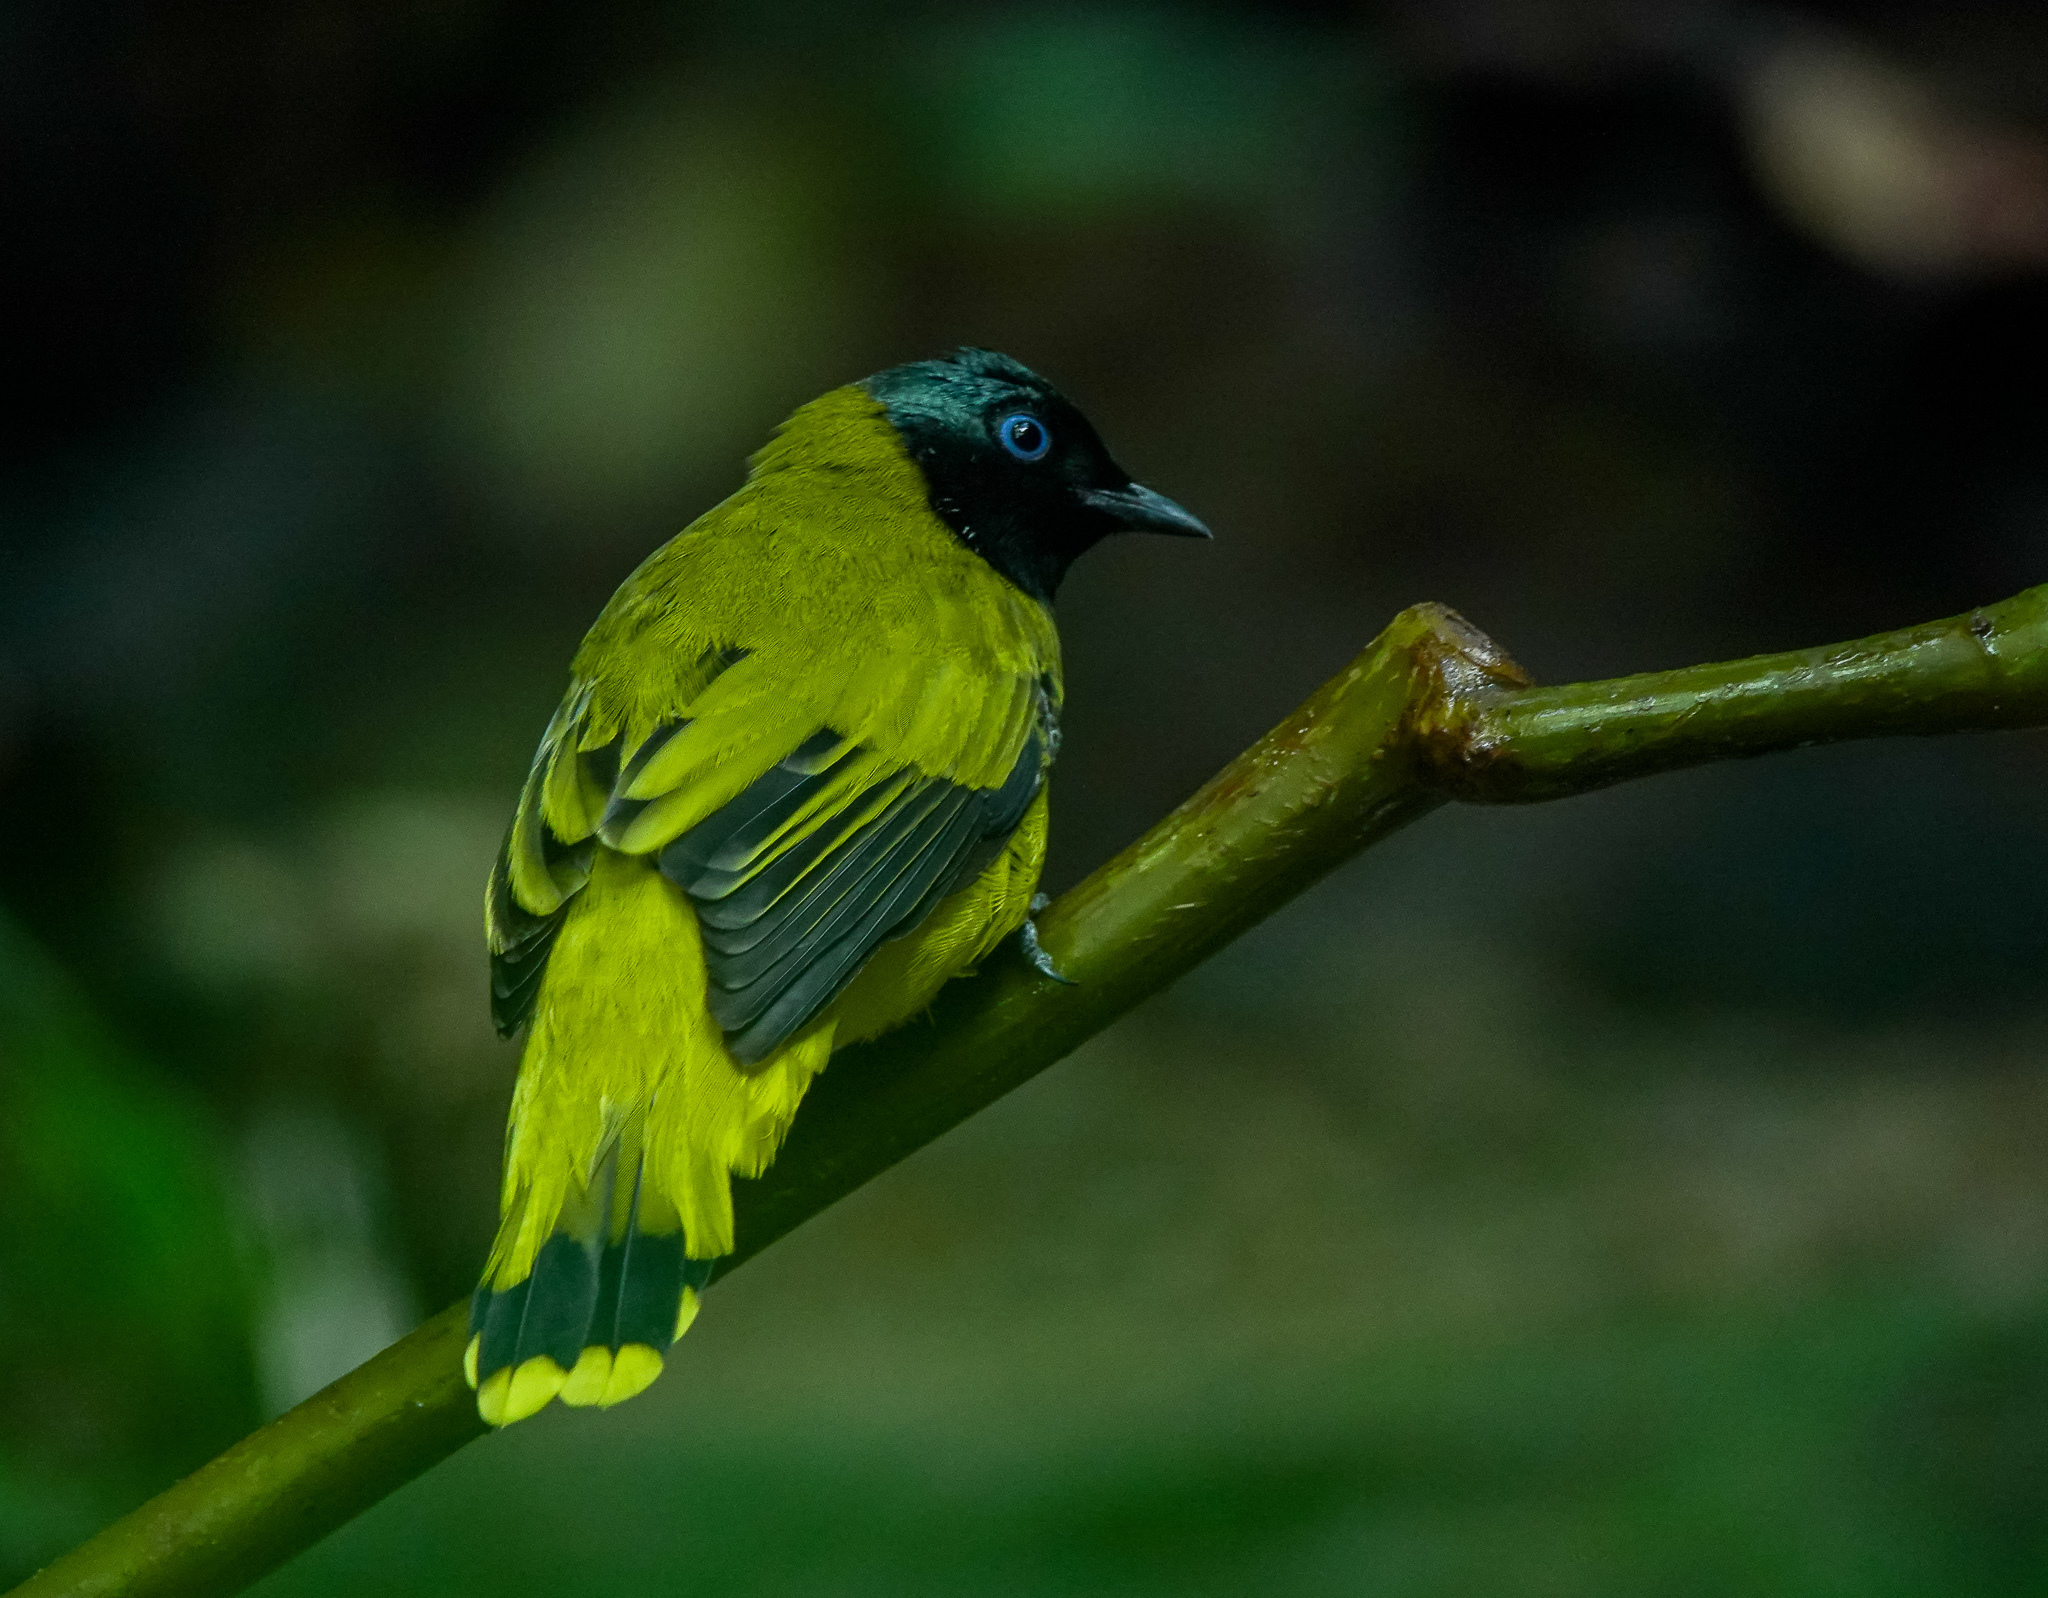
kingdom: Animalia
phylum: Chordata
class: Aves
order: Passeriformes
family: Pycnonotidae
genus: Microtarsus
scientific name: Microtarsus
